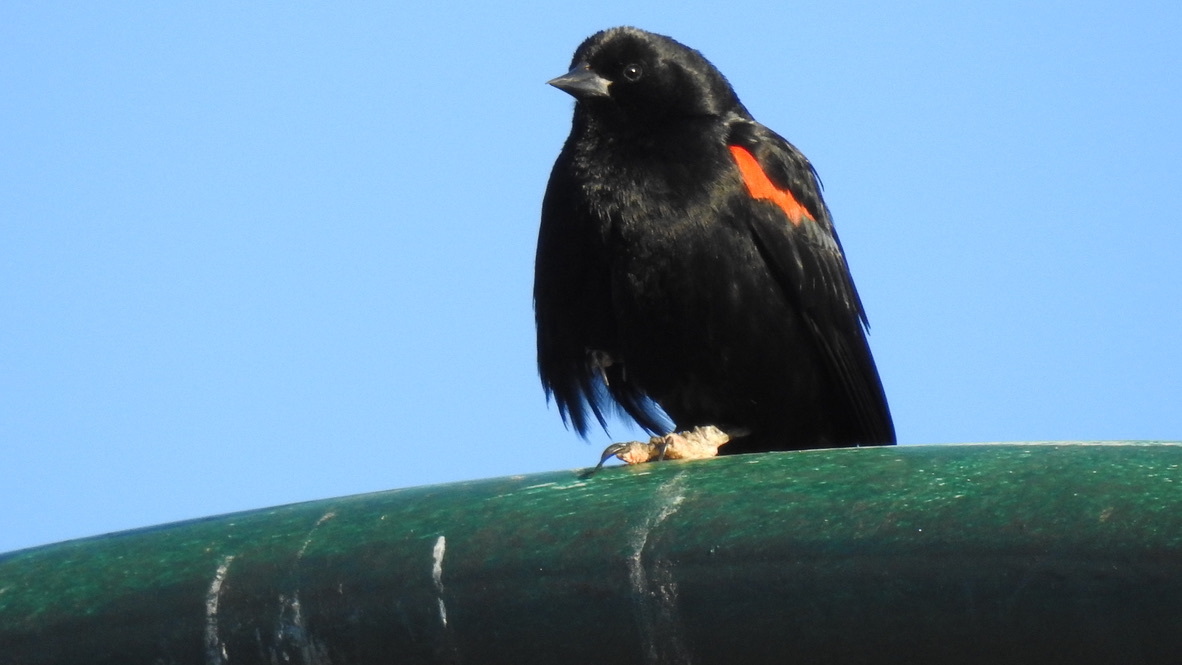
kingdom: Animalia
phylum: Chordata
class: Aves
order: Passeriformes
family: Icteridae
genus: Agelaius
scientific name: Agelaius phoeniceus
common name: Red-winged blackbird
